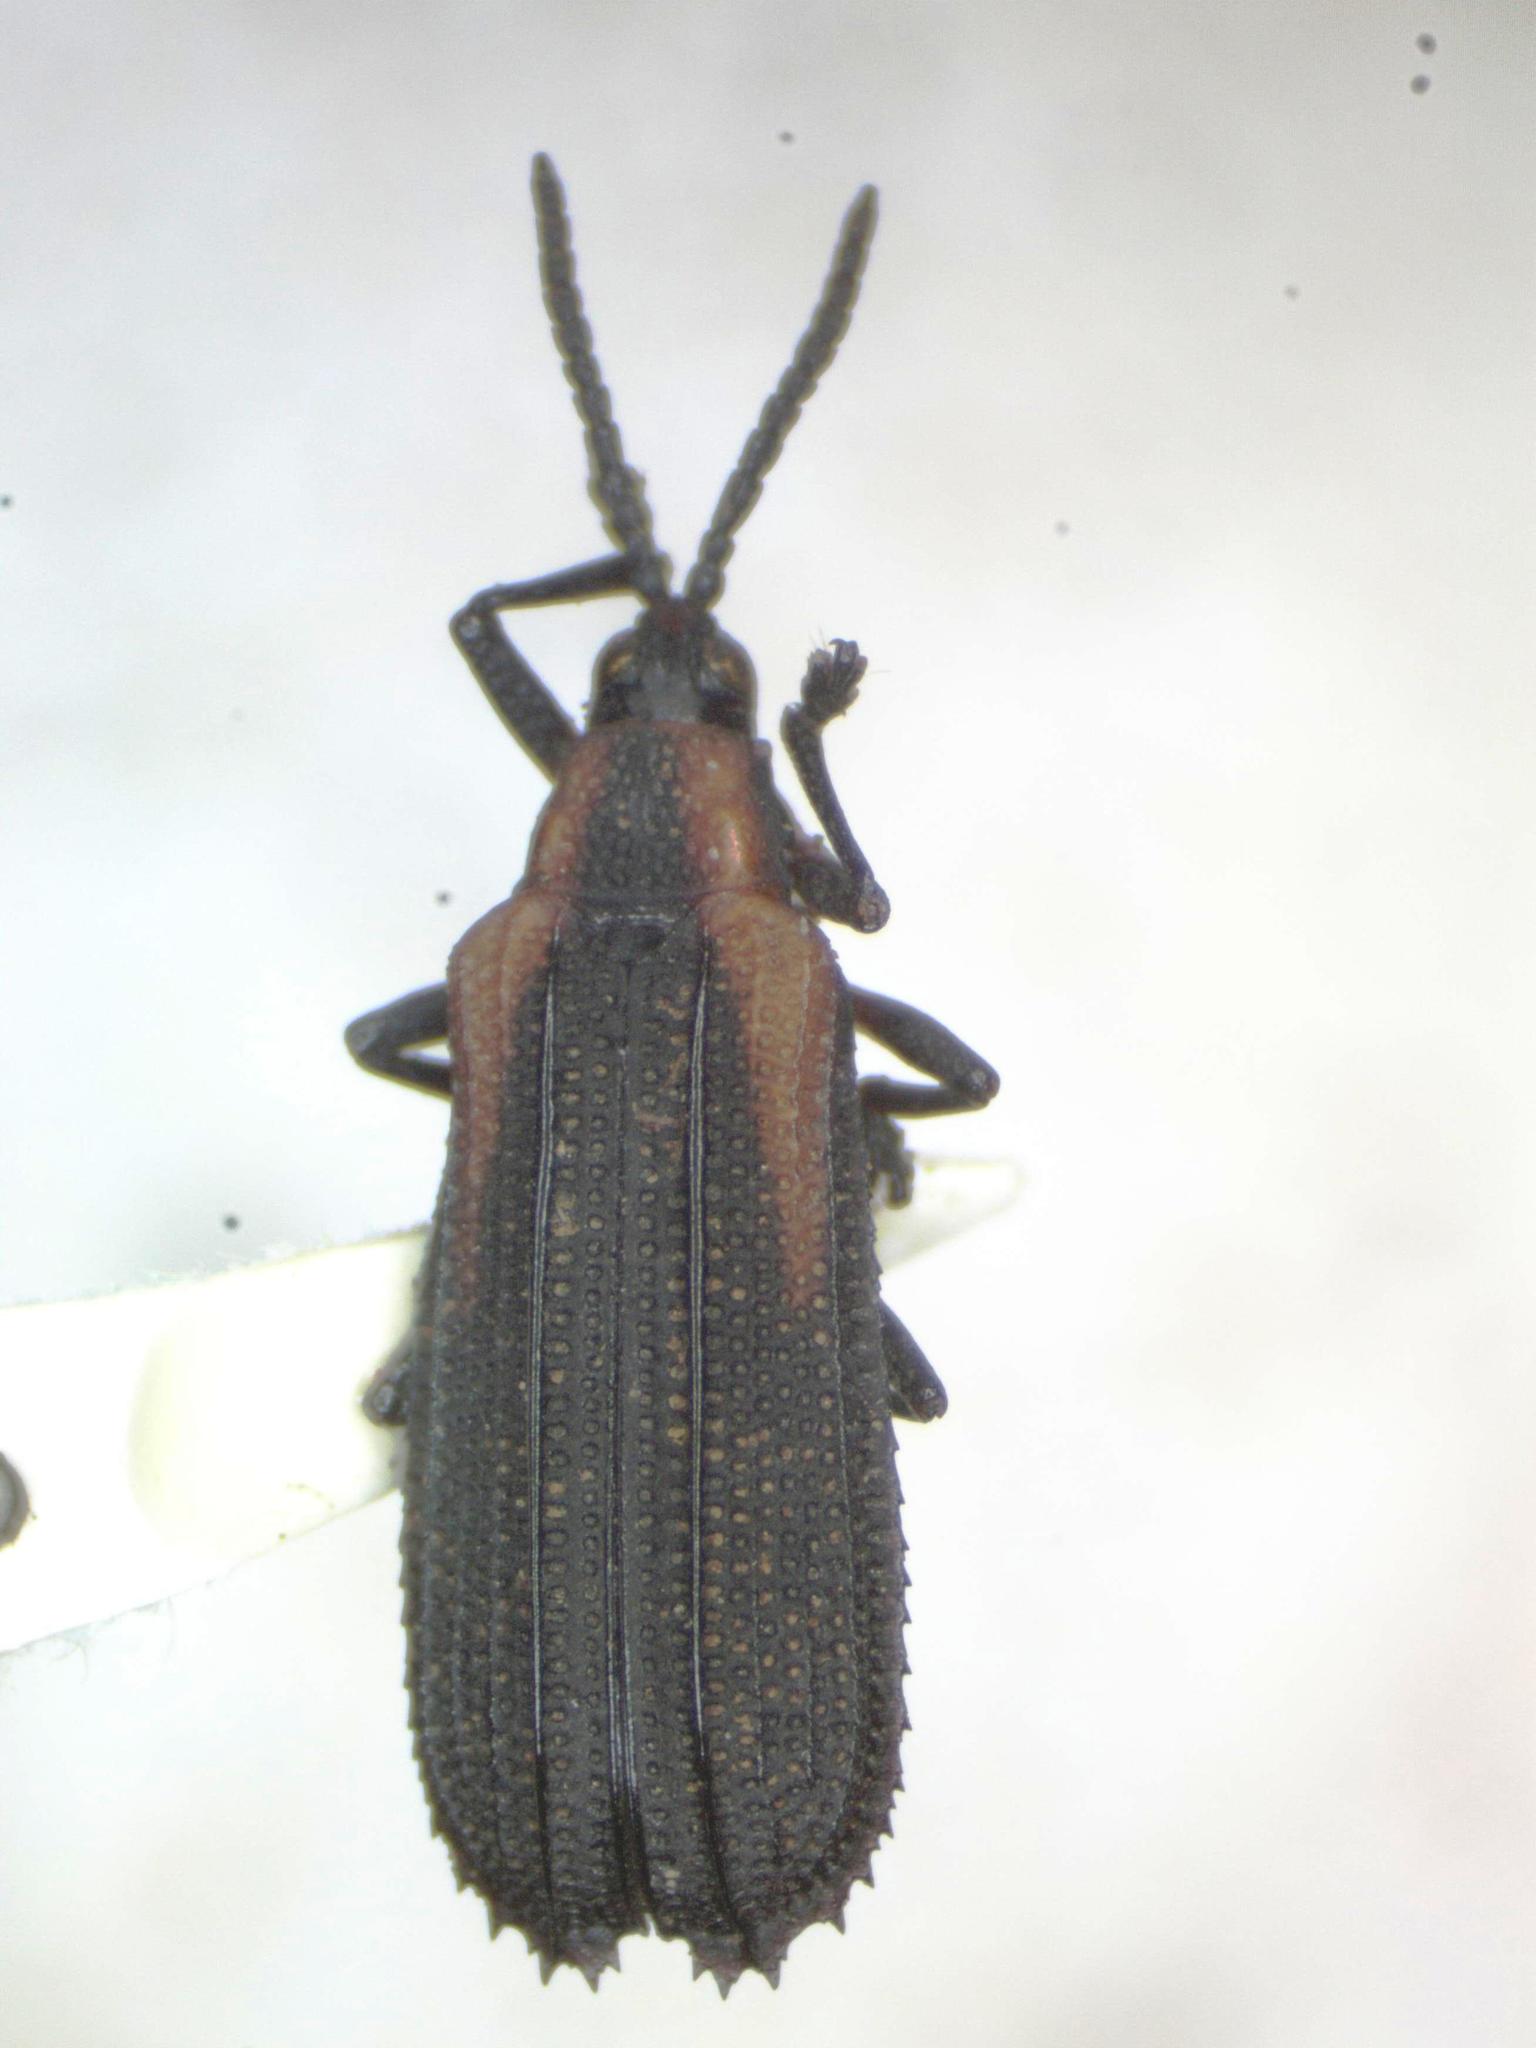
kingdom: Animalia
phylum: Arthropoda
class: Insecta
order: Coleoptera
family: Chrysomelidae
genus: Xenochalepus
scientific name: Xenochalepus omoger
